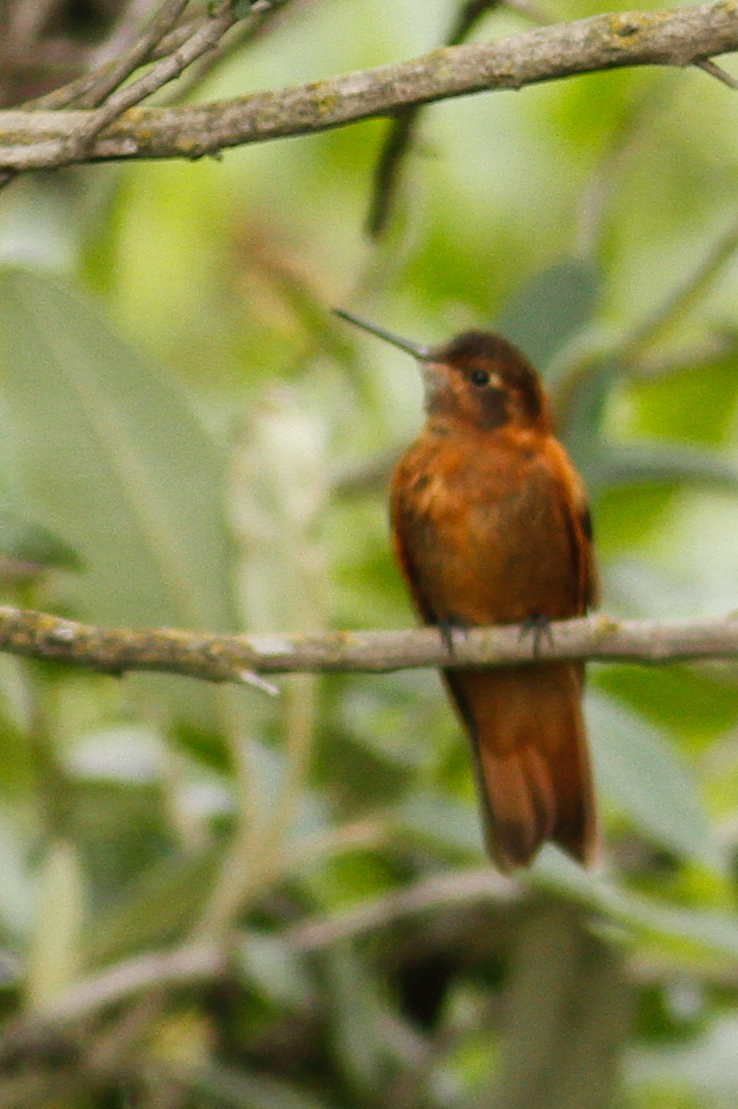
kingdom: Animalia
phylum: Chordata
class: Aves
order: Apodiformes
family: Trochilidae
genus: Aglaeactis
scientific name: Aglaeactis cupripennis
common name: Shining sunbeam
